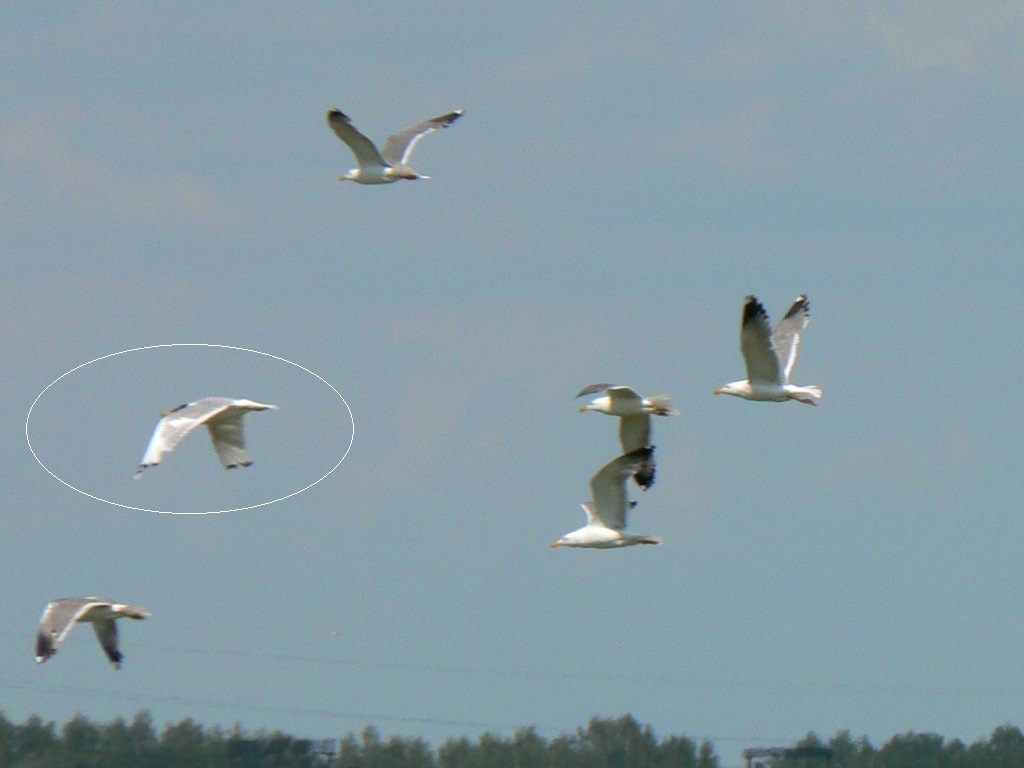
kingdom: Animalia
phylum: Chordata
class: Aves
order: Charadriiformes
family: Laridae
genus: Ichthyaetus
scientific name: Ichthyaetus ichthyaetus
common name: Pallas's gull
